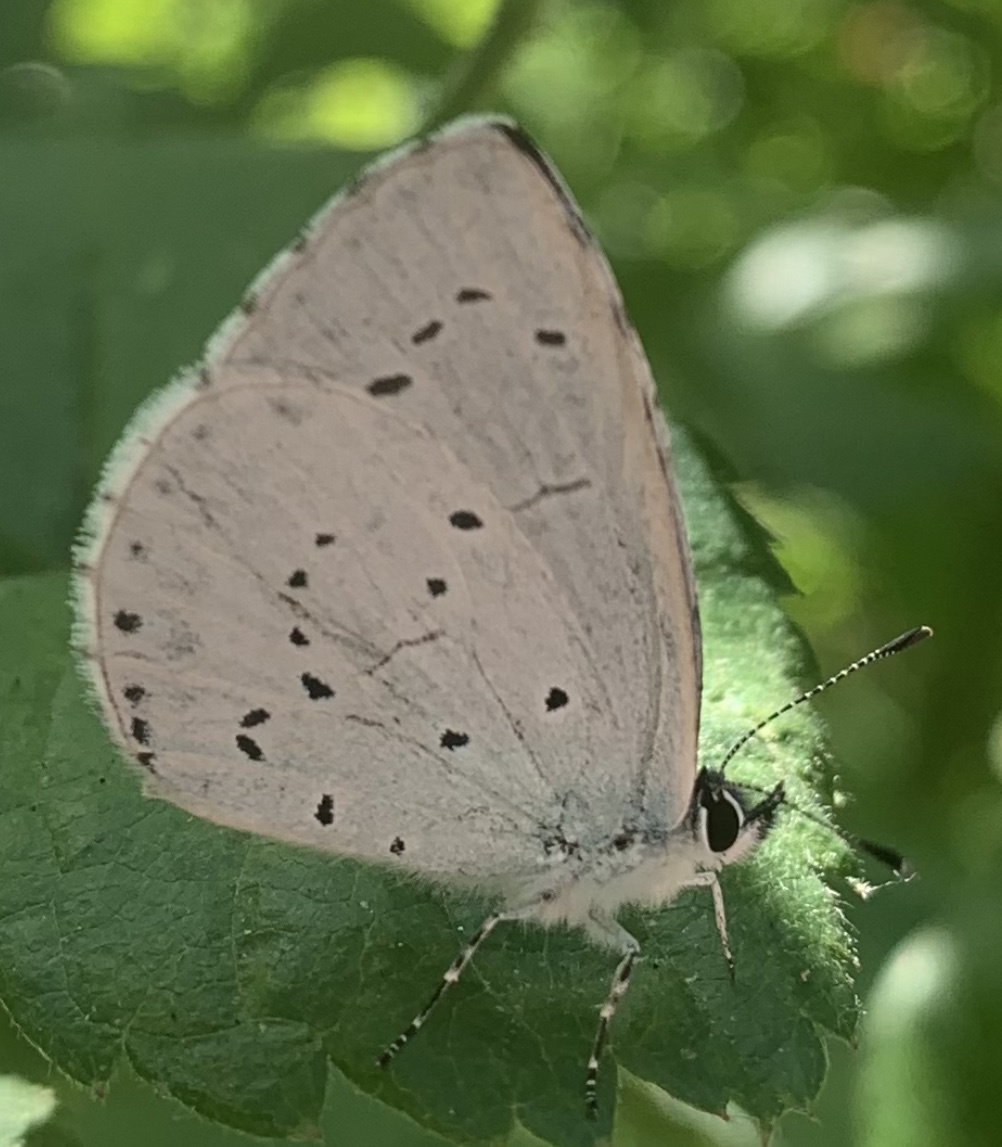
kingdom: Animalia
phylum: Arthropoda
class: Insecta
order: Lepidoptera
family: Lycaenidae
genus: Celastrina
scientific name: Celastrina argiolus
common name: Holly blue
